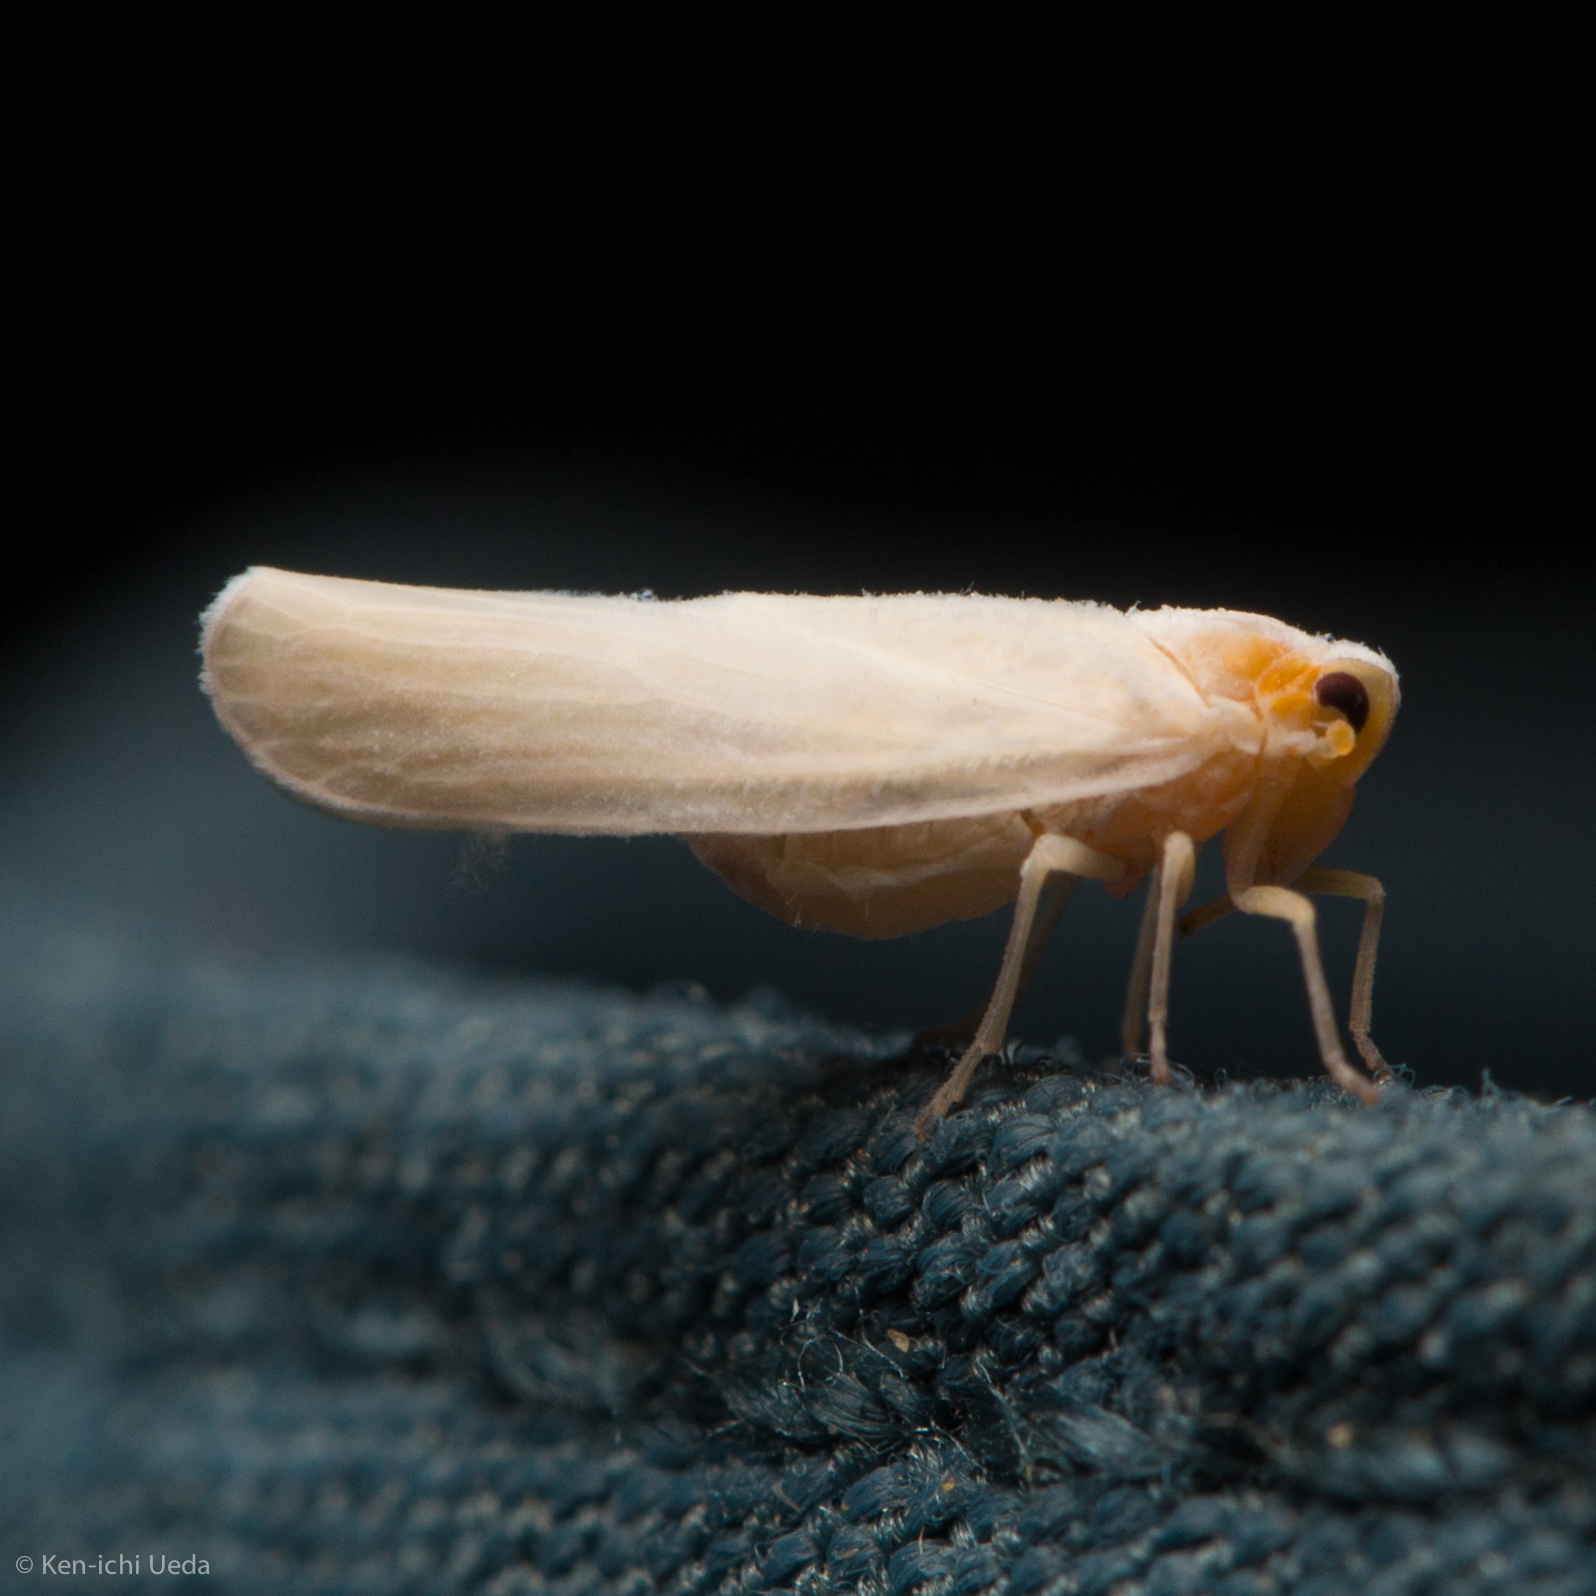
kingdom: Animalia
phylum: Arthropoda
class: Insecta
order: Hemiptera
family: Derbidae
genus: Neocenchrea
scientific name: Neocenchrea heidemanni
